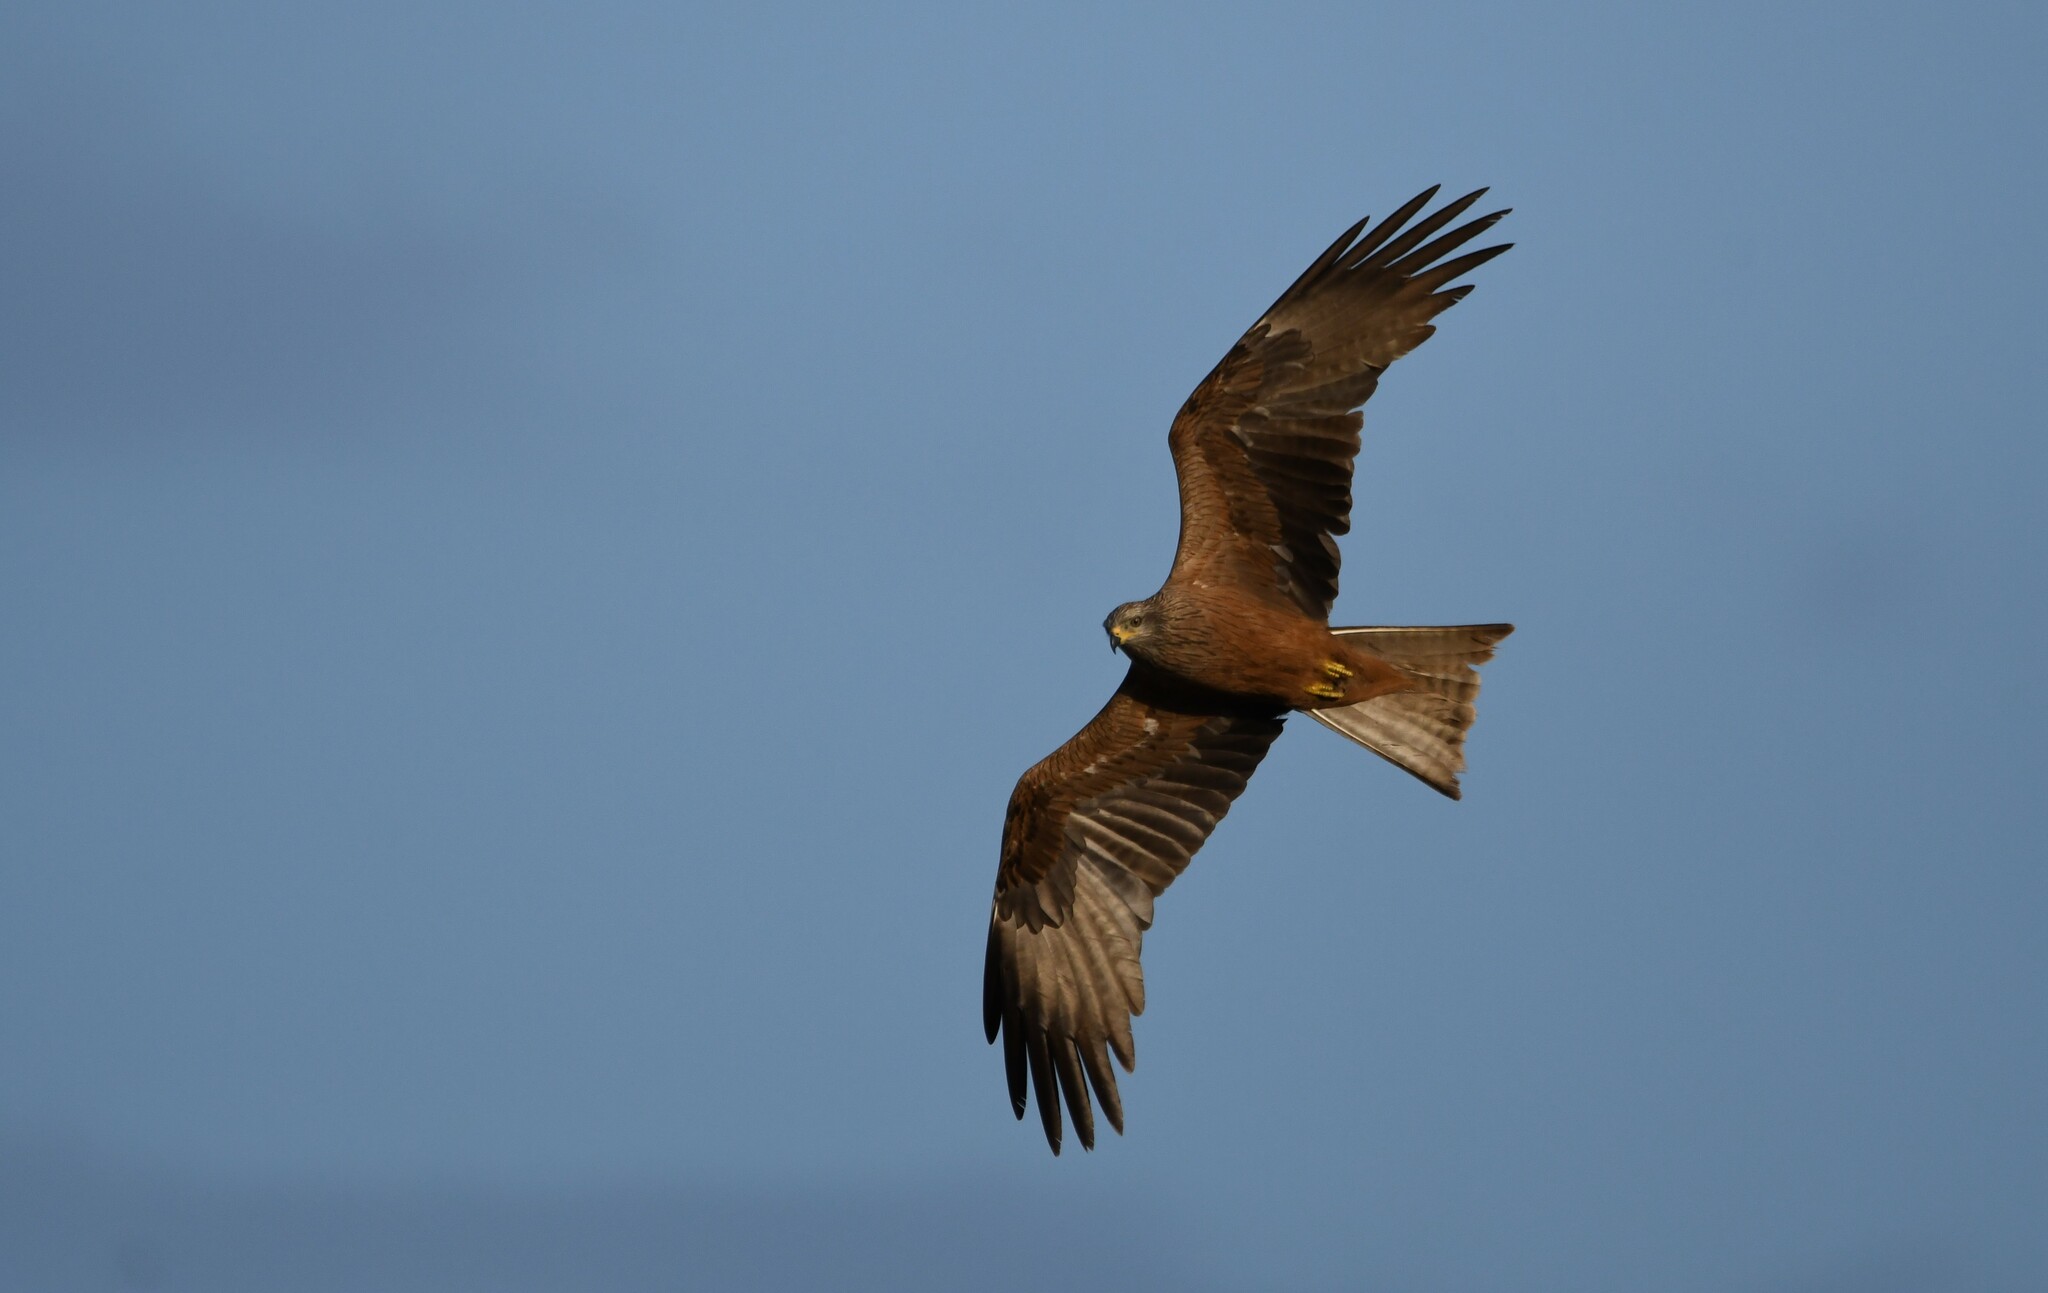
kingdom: Animalia
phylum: Chordata
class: Aves
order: Accipitriformes
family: Accipitridae
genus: Milvus
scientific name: Milvus migrans
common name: Black kite
